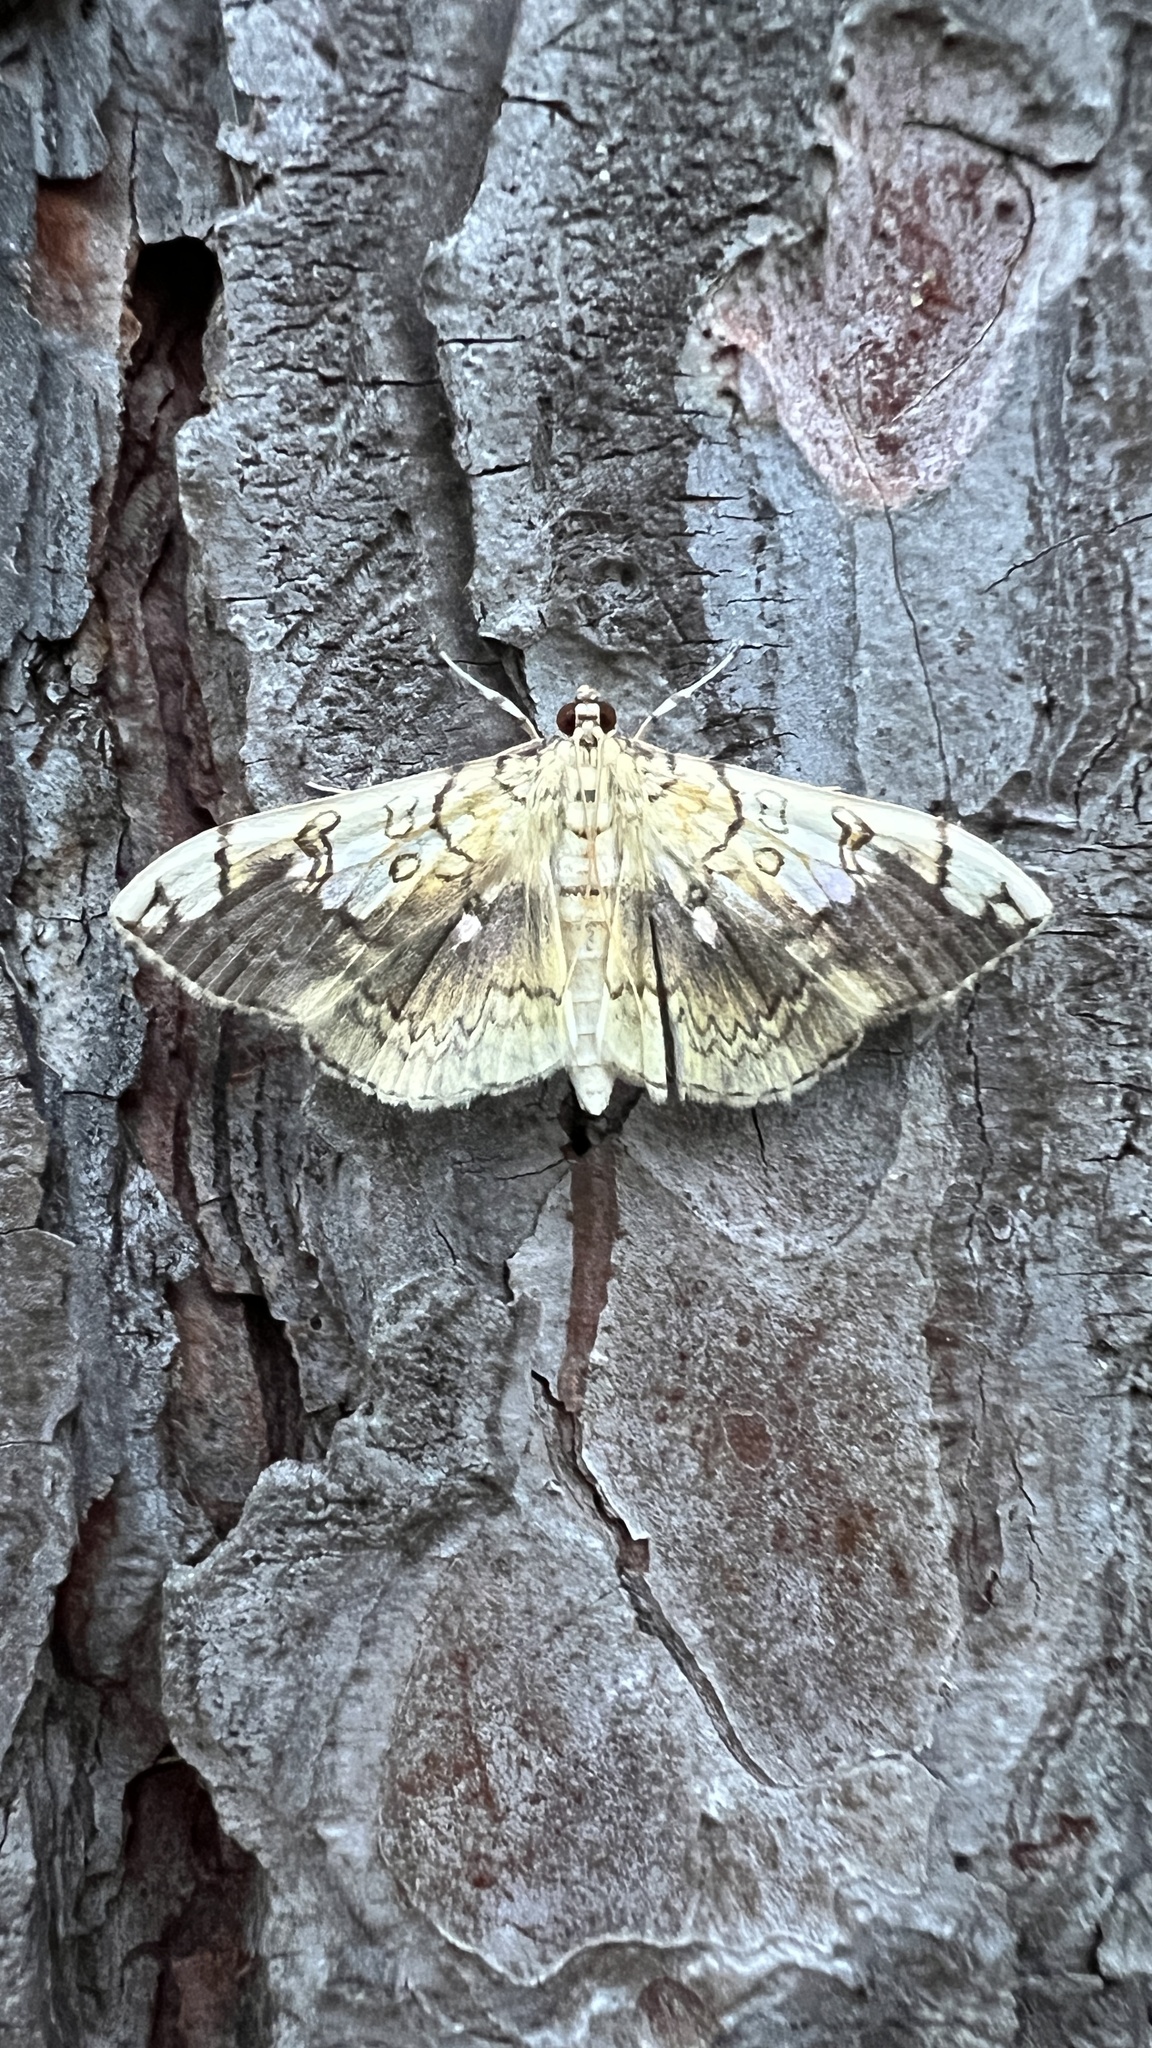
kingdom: Animalia
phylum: Arthropoda
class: Insecta
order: Lepidoptera
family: Crambidae
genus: Pantographa
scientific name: Pantographa limata
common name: Basswood leafroller moth
